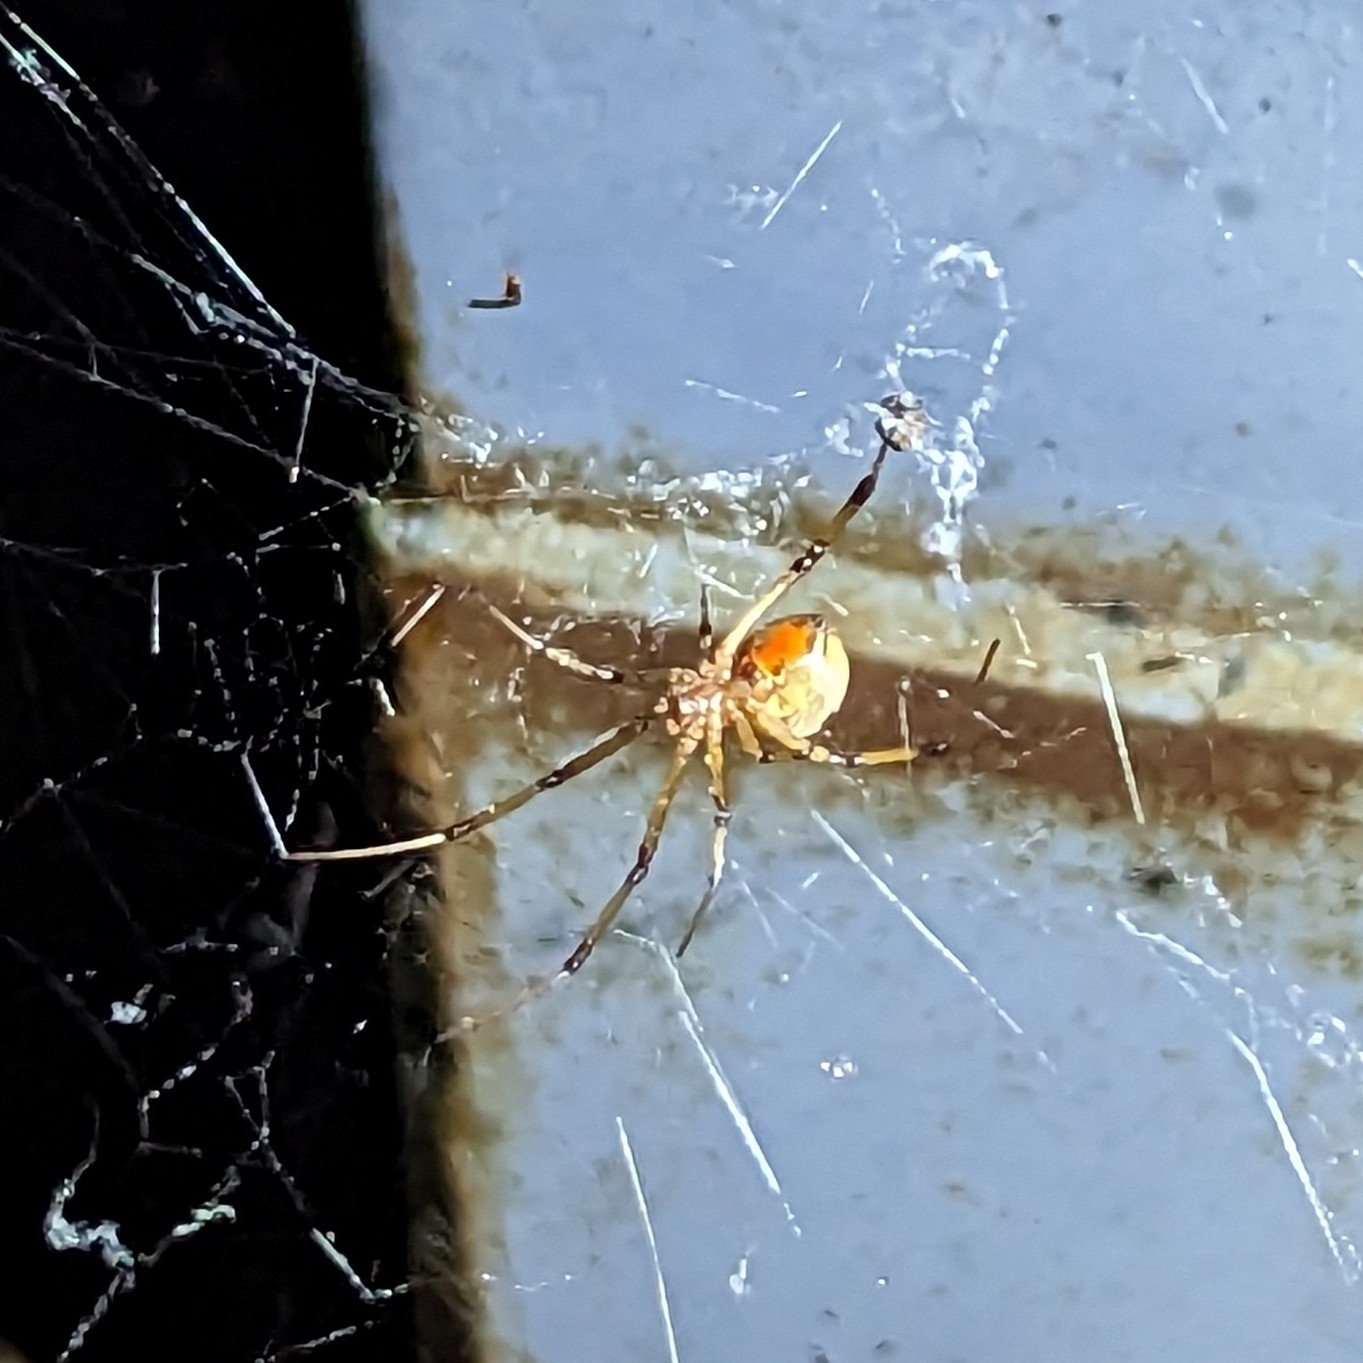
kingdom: Animalia
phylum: Arthropoda
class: Arachnida
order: Araneae
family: Theridiidae
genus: Latrodectus
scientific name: Latrodectus geometricus
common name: Brown widow spider
